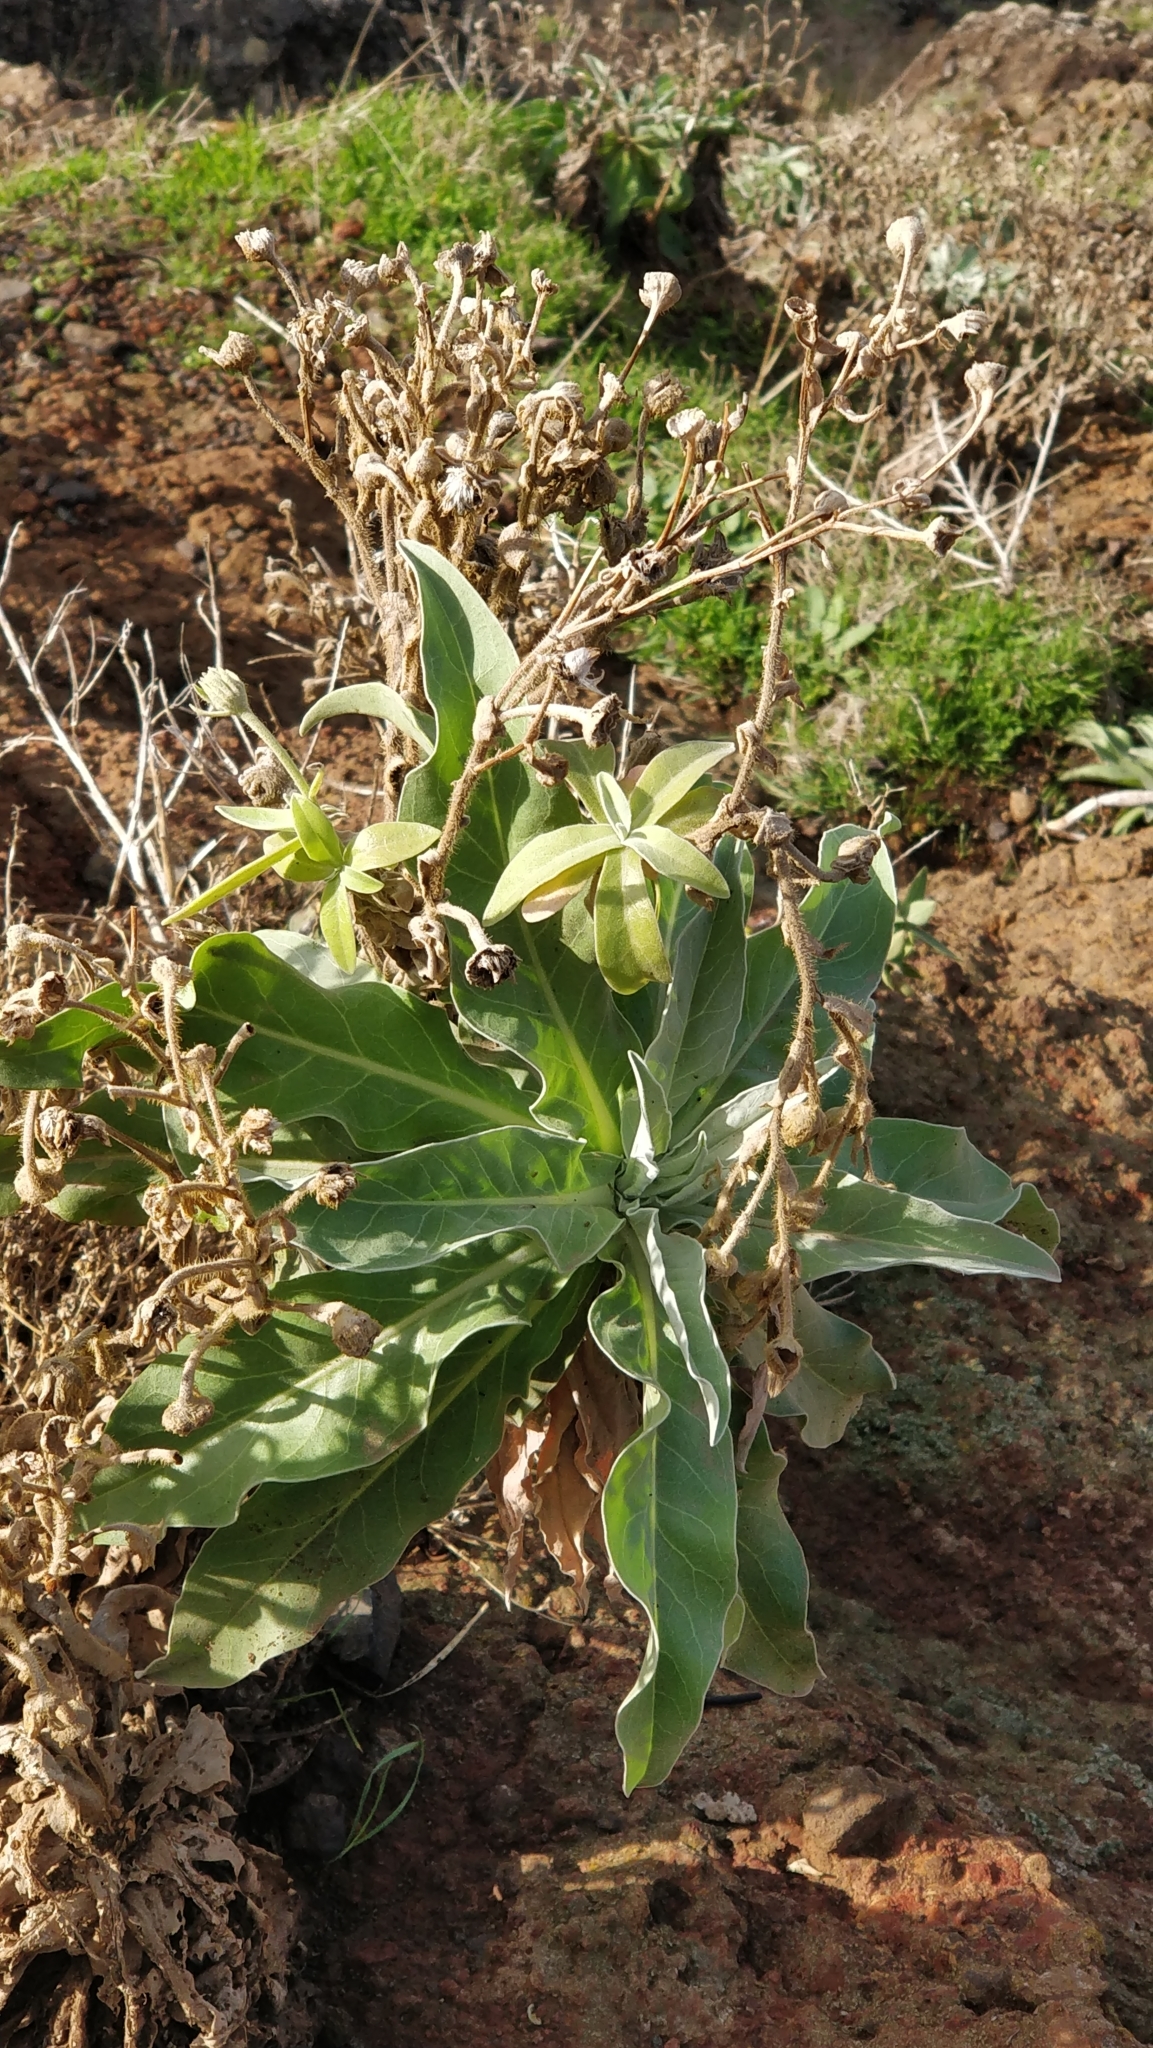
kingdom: Plantae
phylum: Tracheophyta
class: Magnoliopsida
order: Asterales
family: Asteraceae
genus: Andryala
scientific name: Andryala glandulosa
